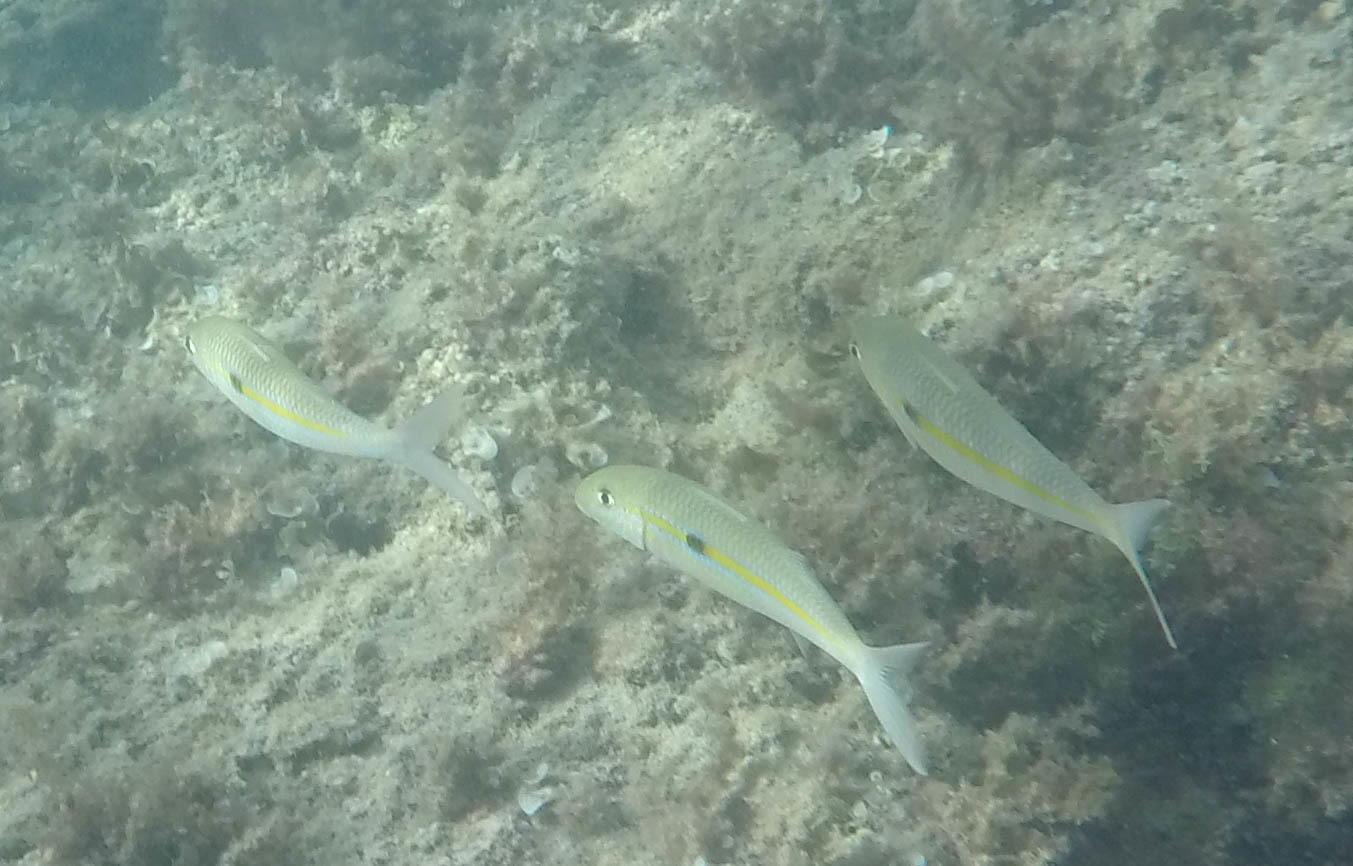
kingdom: Animalia
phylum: Chordata
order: Perciformes
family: Mullidae
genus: Mulloidichthys
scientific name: Mulloidichthys flavolineatus
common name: Yellowstripe goatfish
